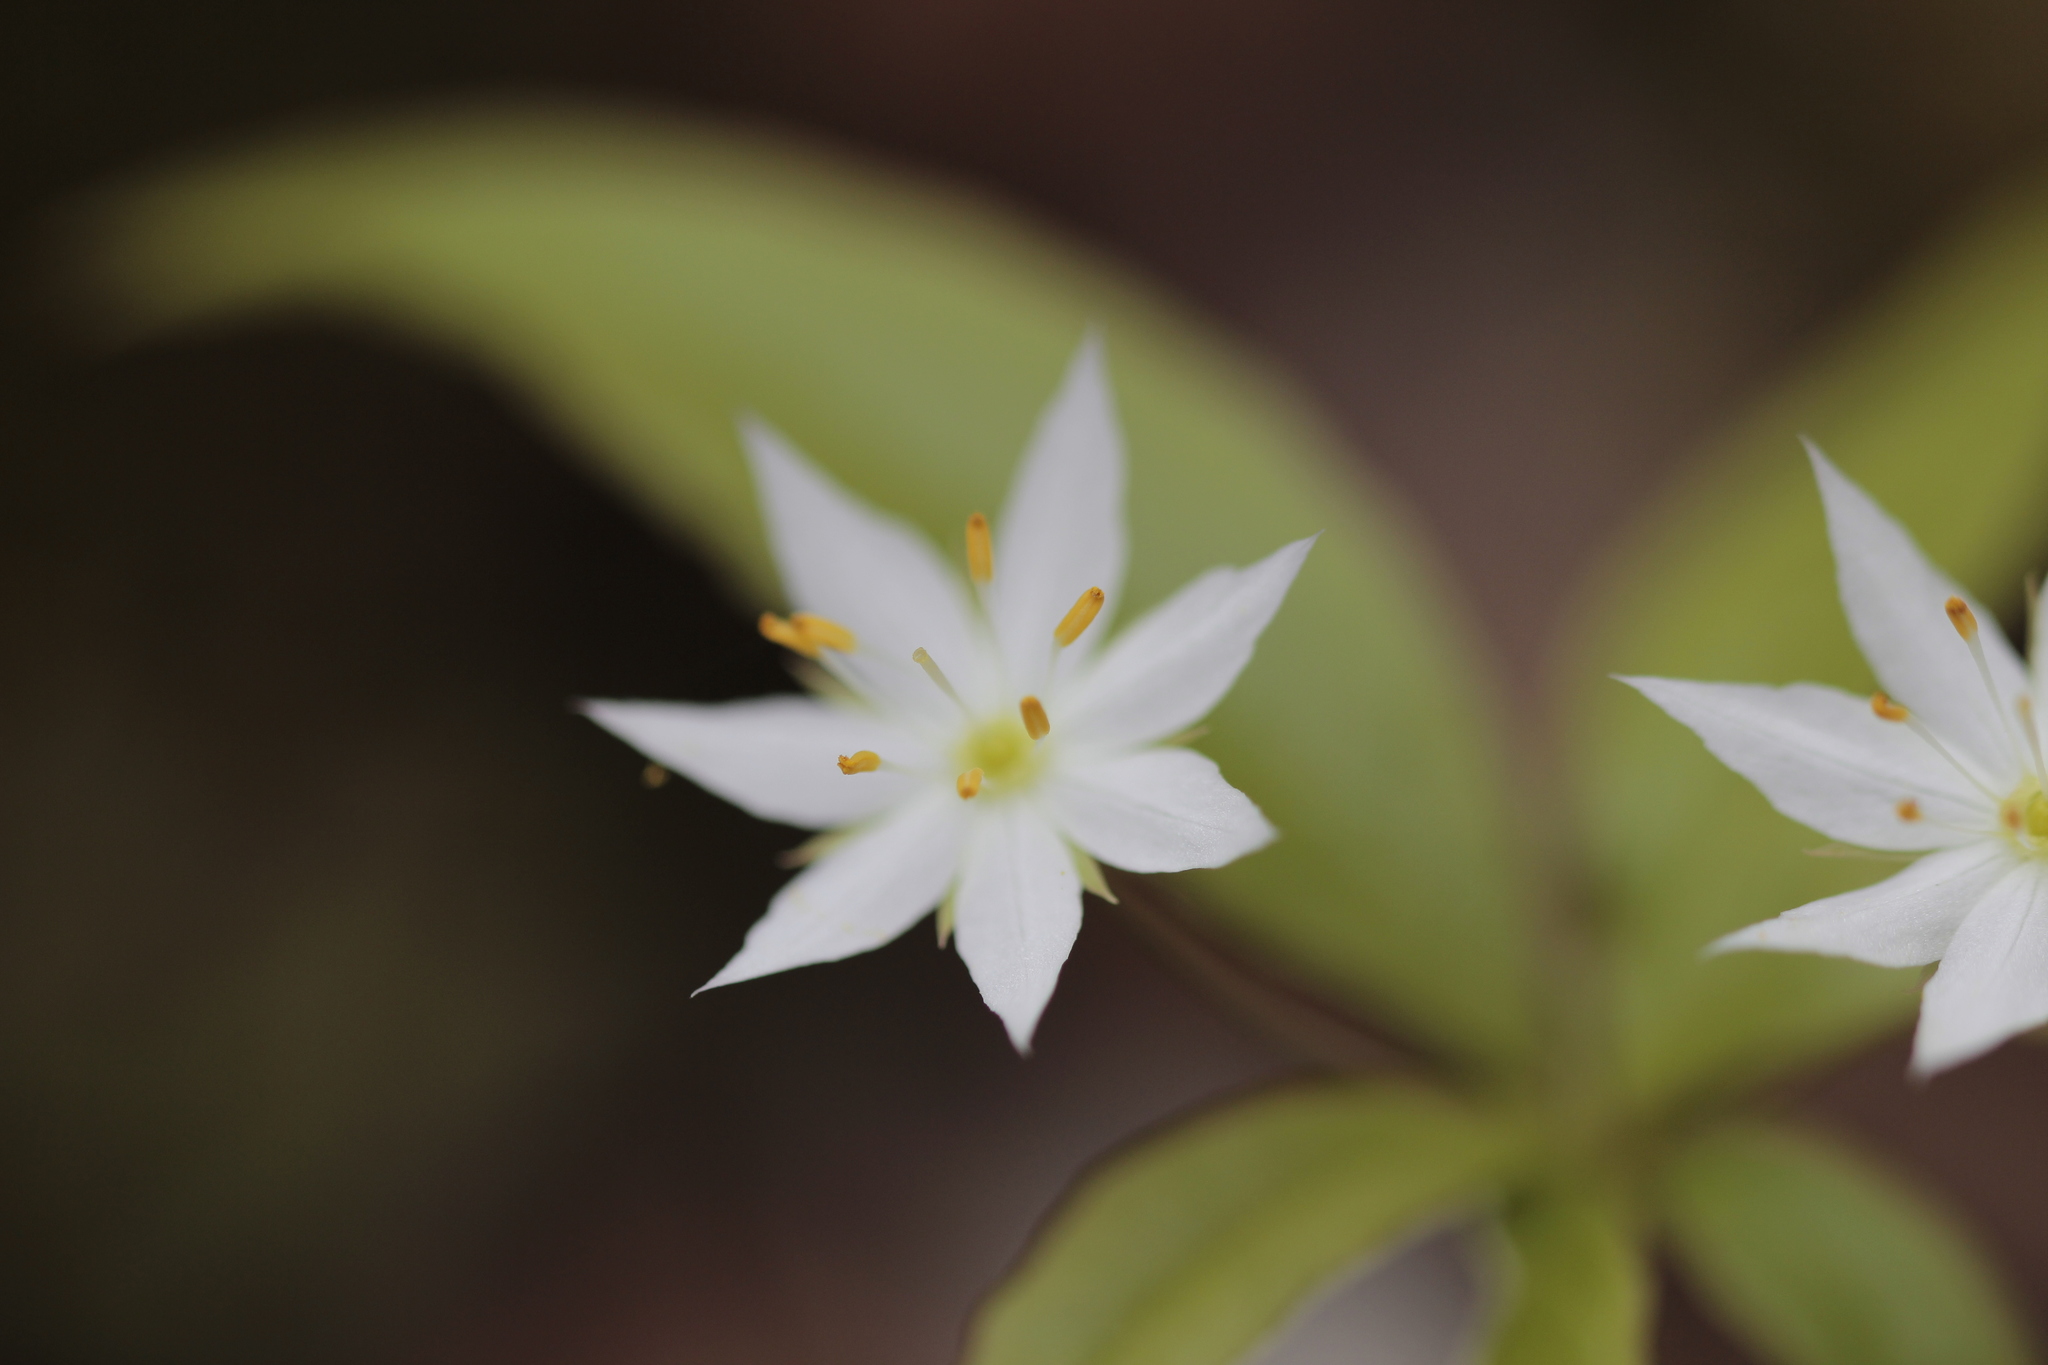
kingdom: Plantae
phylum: Tracheophyta
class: Magnoliopsida
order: Ericales
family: Primulaceae
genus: Lysimachia
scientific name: Lysimachia borealis
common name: American starflower
